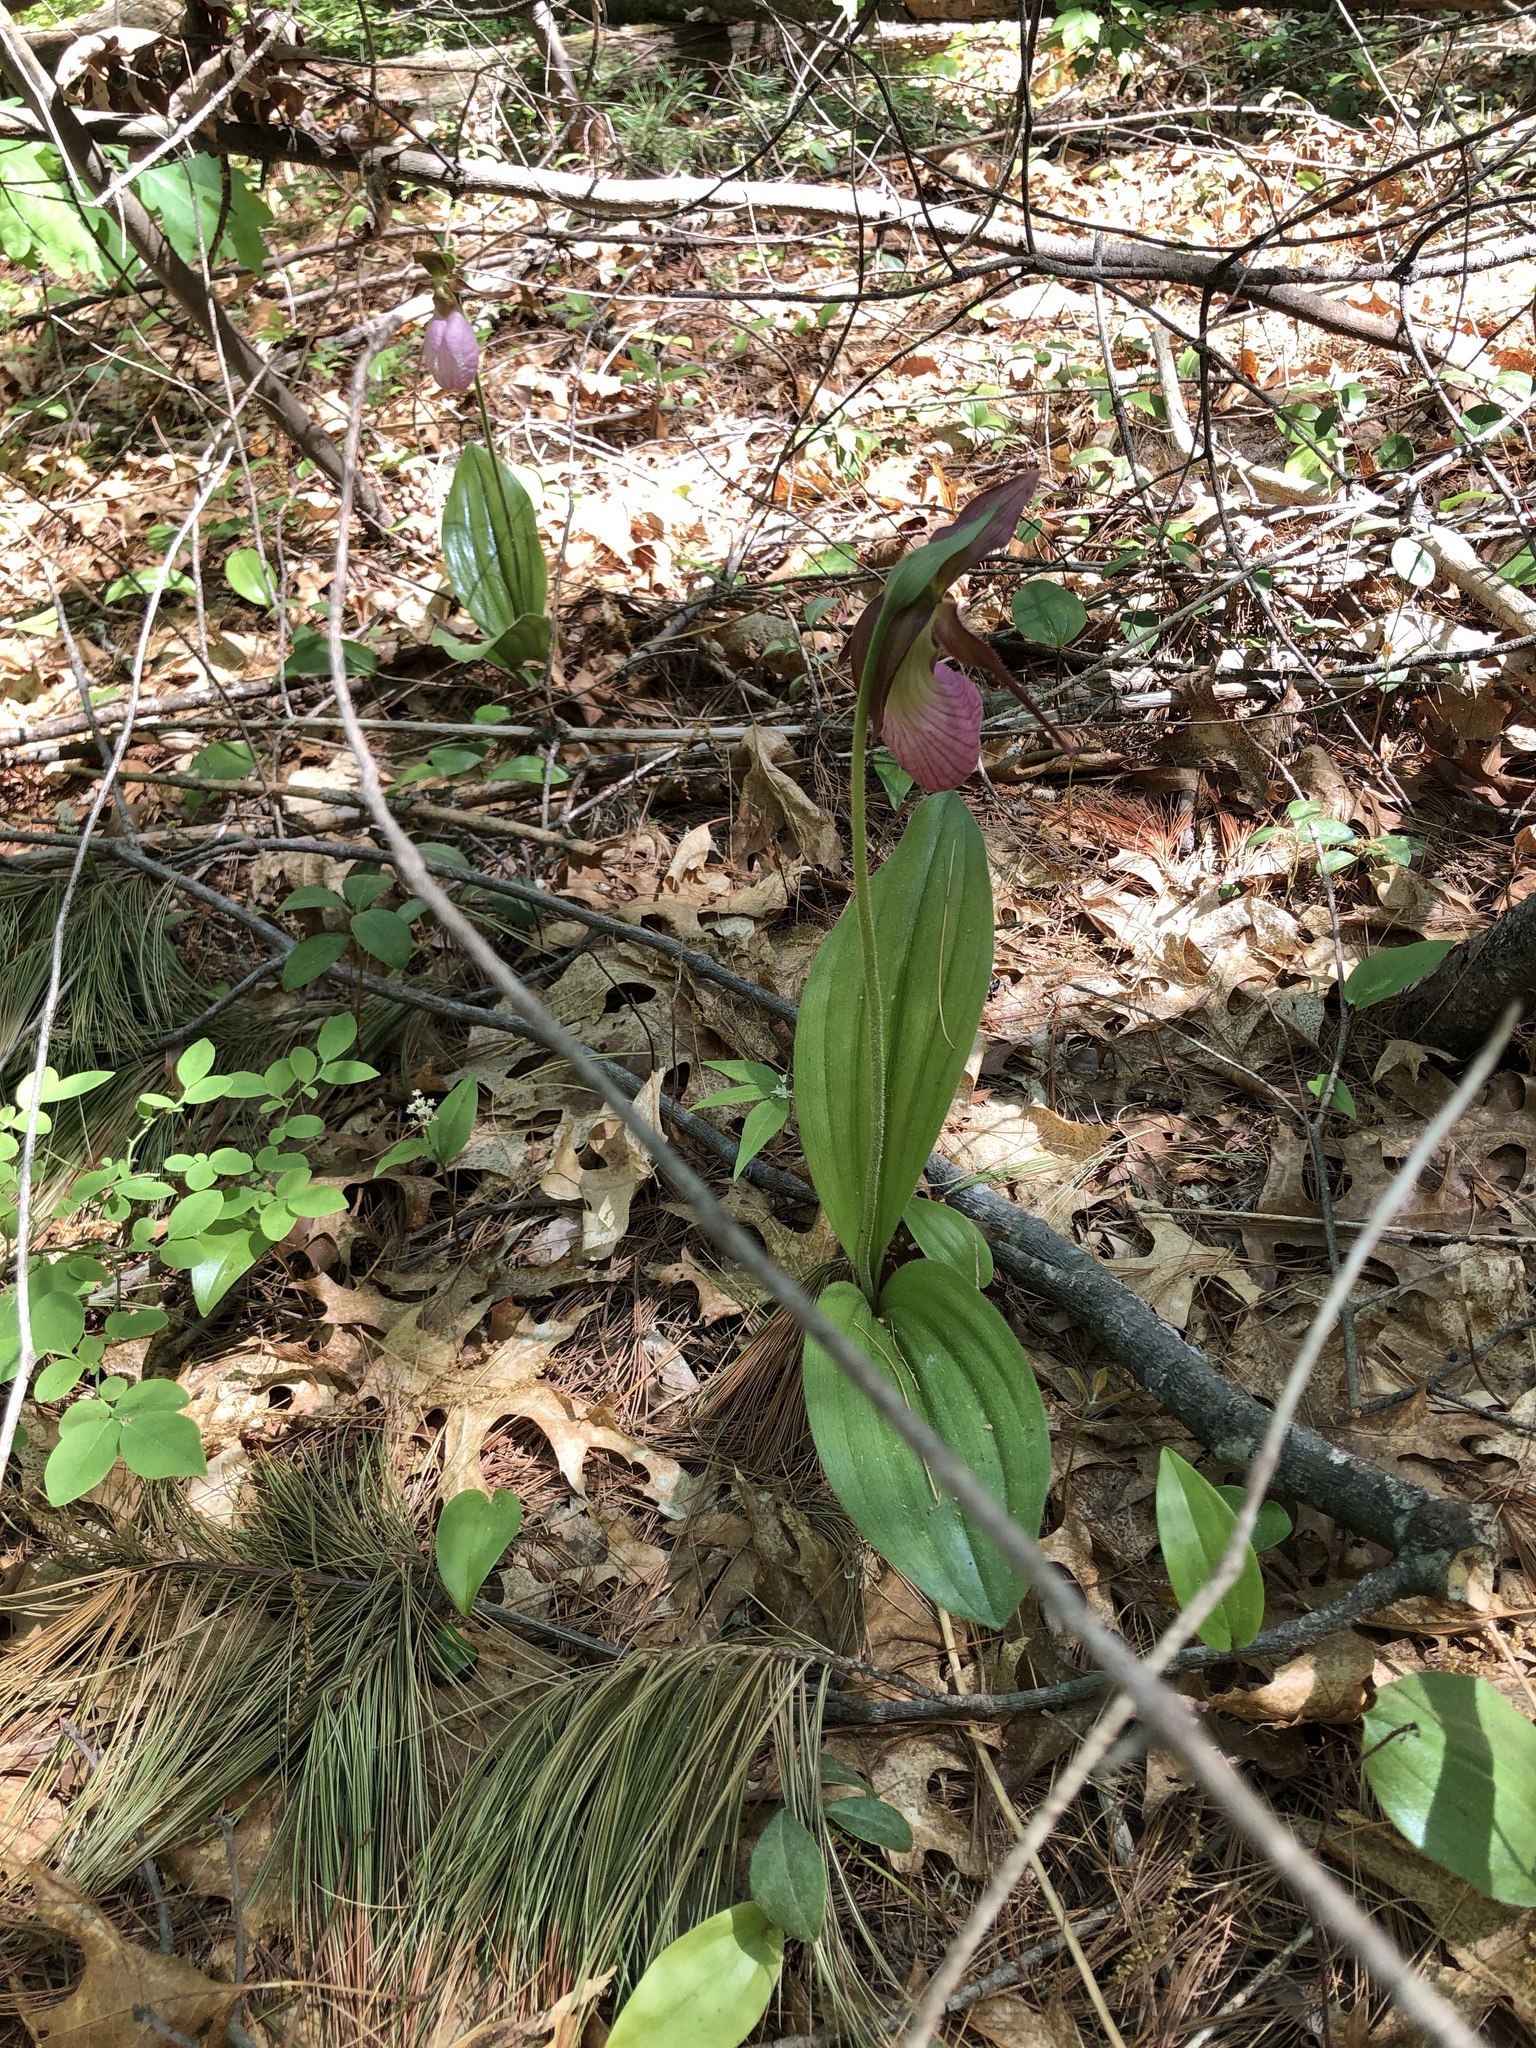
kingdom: Plantae
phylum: Tracheophyta
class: Liliopsida
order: Asparagales
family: Orchidaceae
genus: Cypripedium
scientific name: Cypripedium acaule
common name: Pink lady's-slipper
